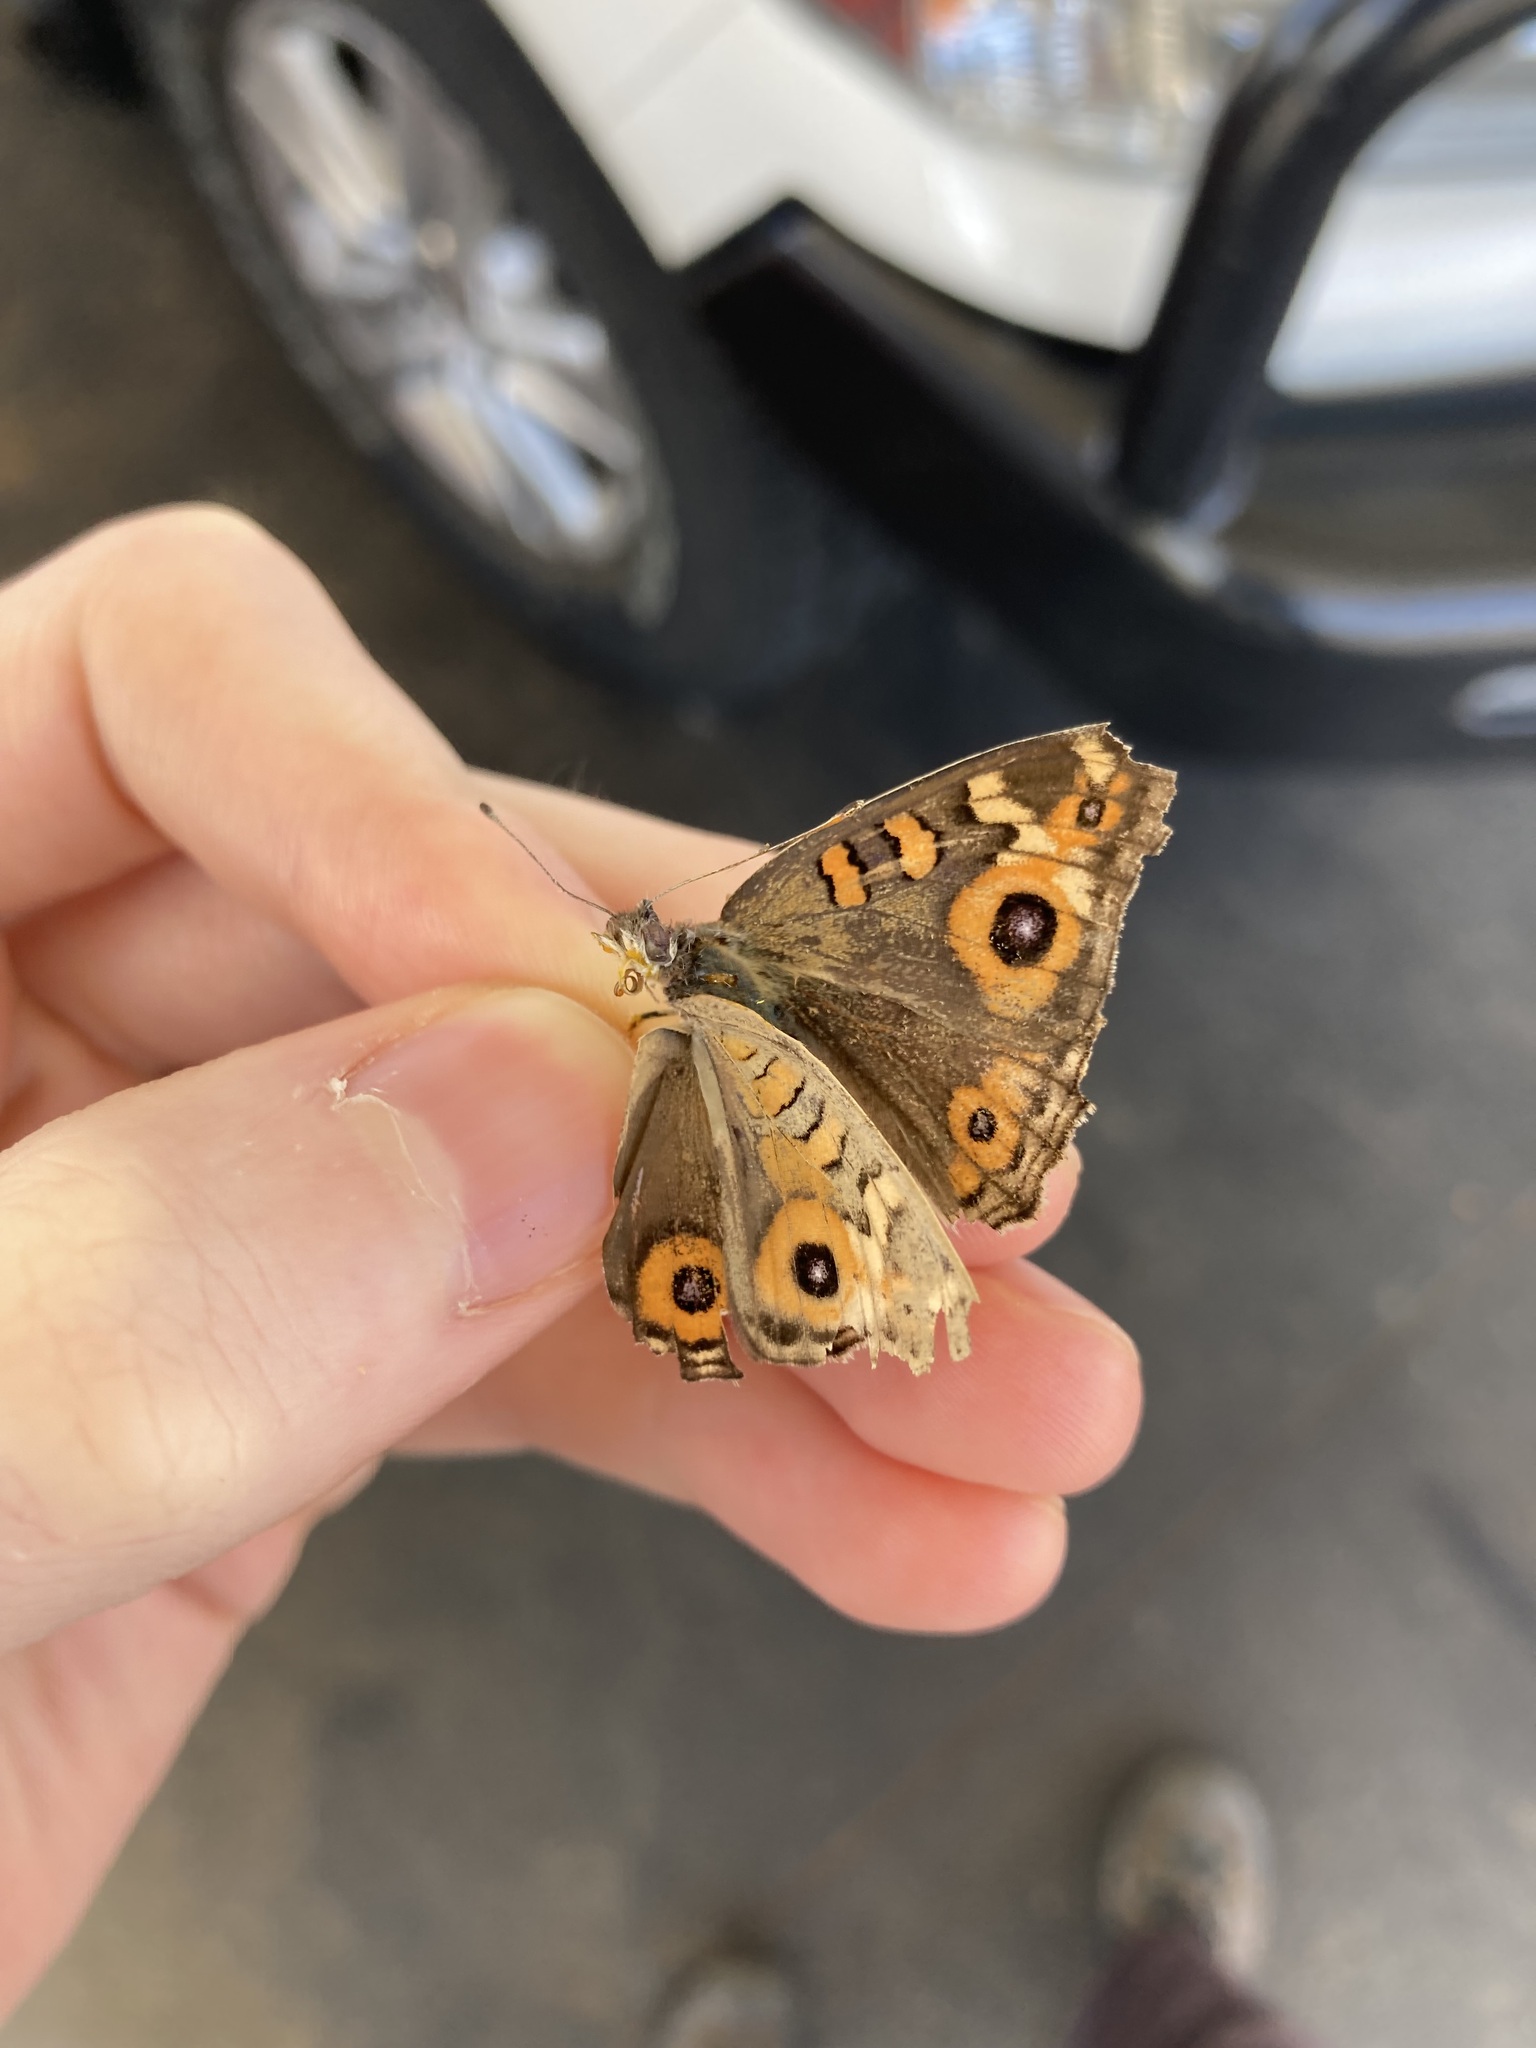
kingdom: Animalia
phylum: Arthropoda
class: Insecta
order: Lepidoptera
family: Nymphalidae
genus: Junonia
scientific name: Junonia villida
